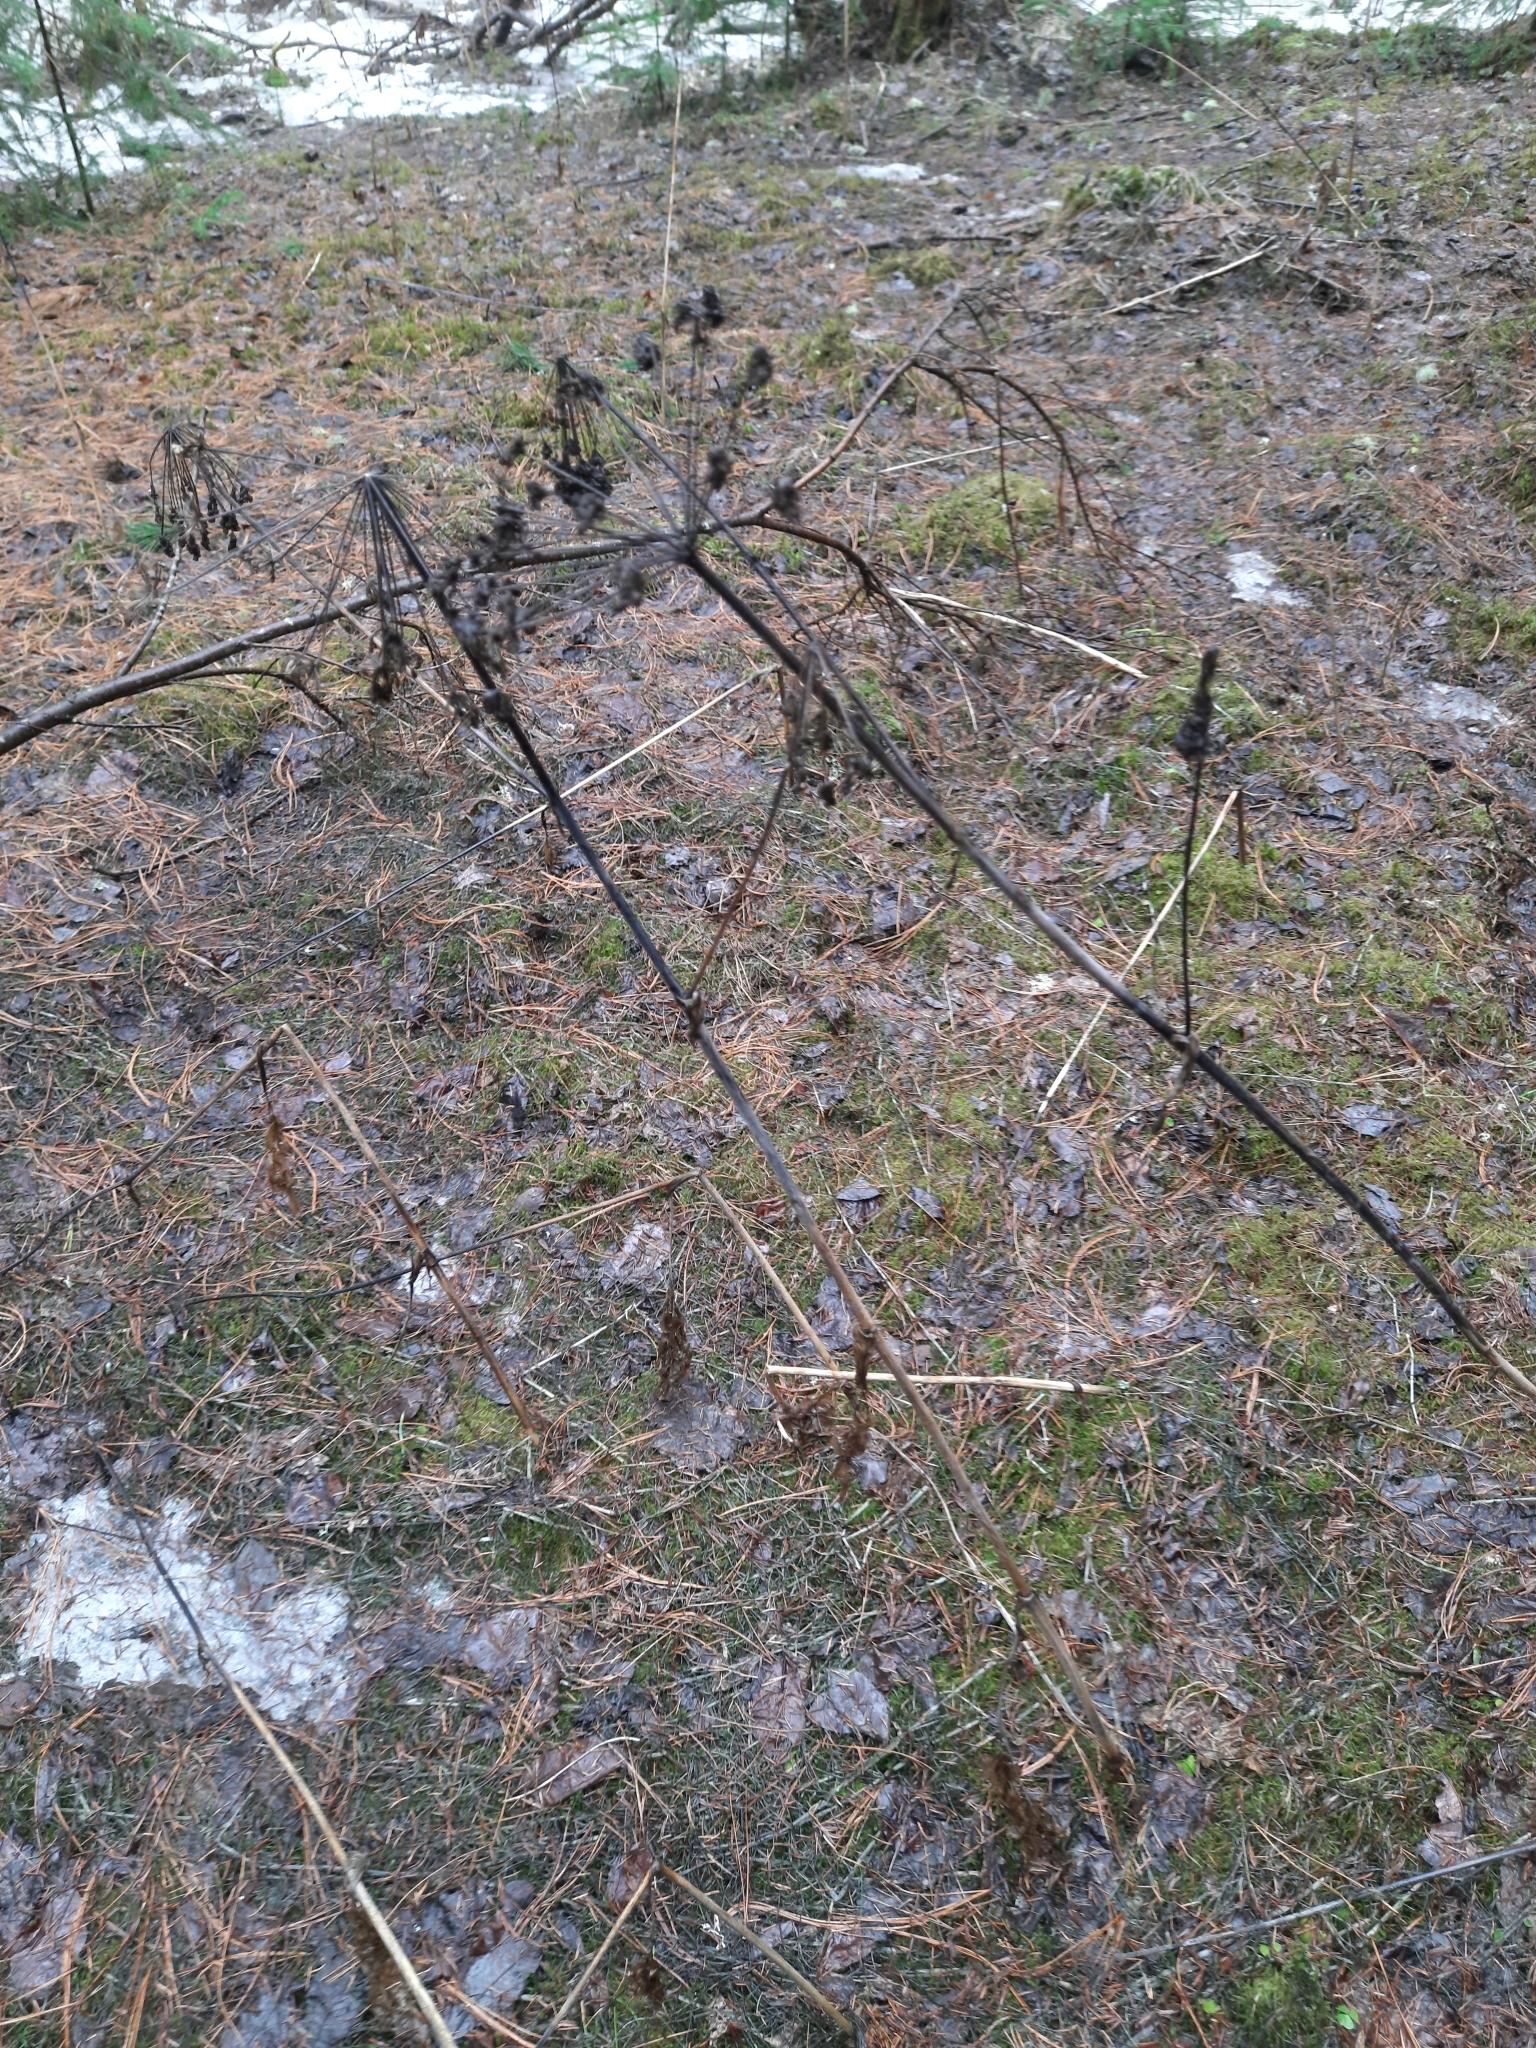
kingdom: Plantae
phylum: Tracheophyta
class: Magnoliopsida
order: Apiales
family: Apiaceae
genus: Angelica
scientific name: Angelica sylvestris
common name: Wild angelica
